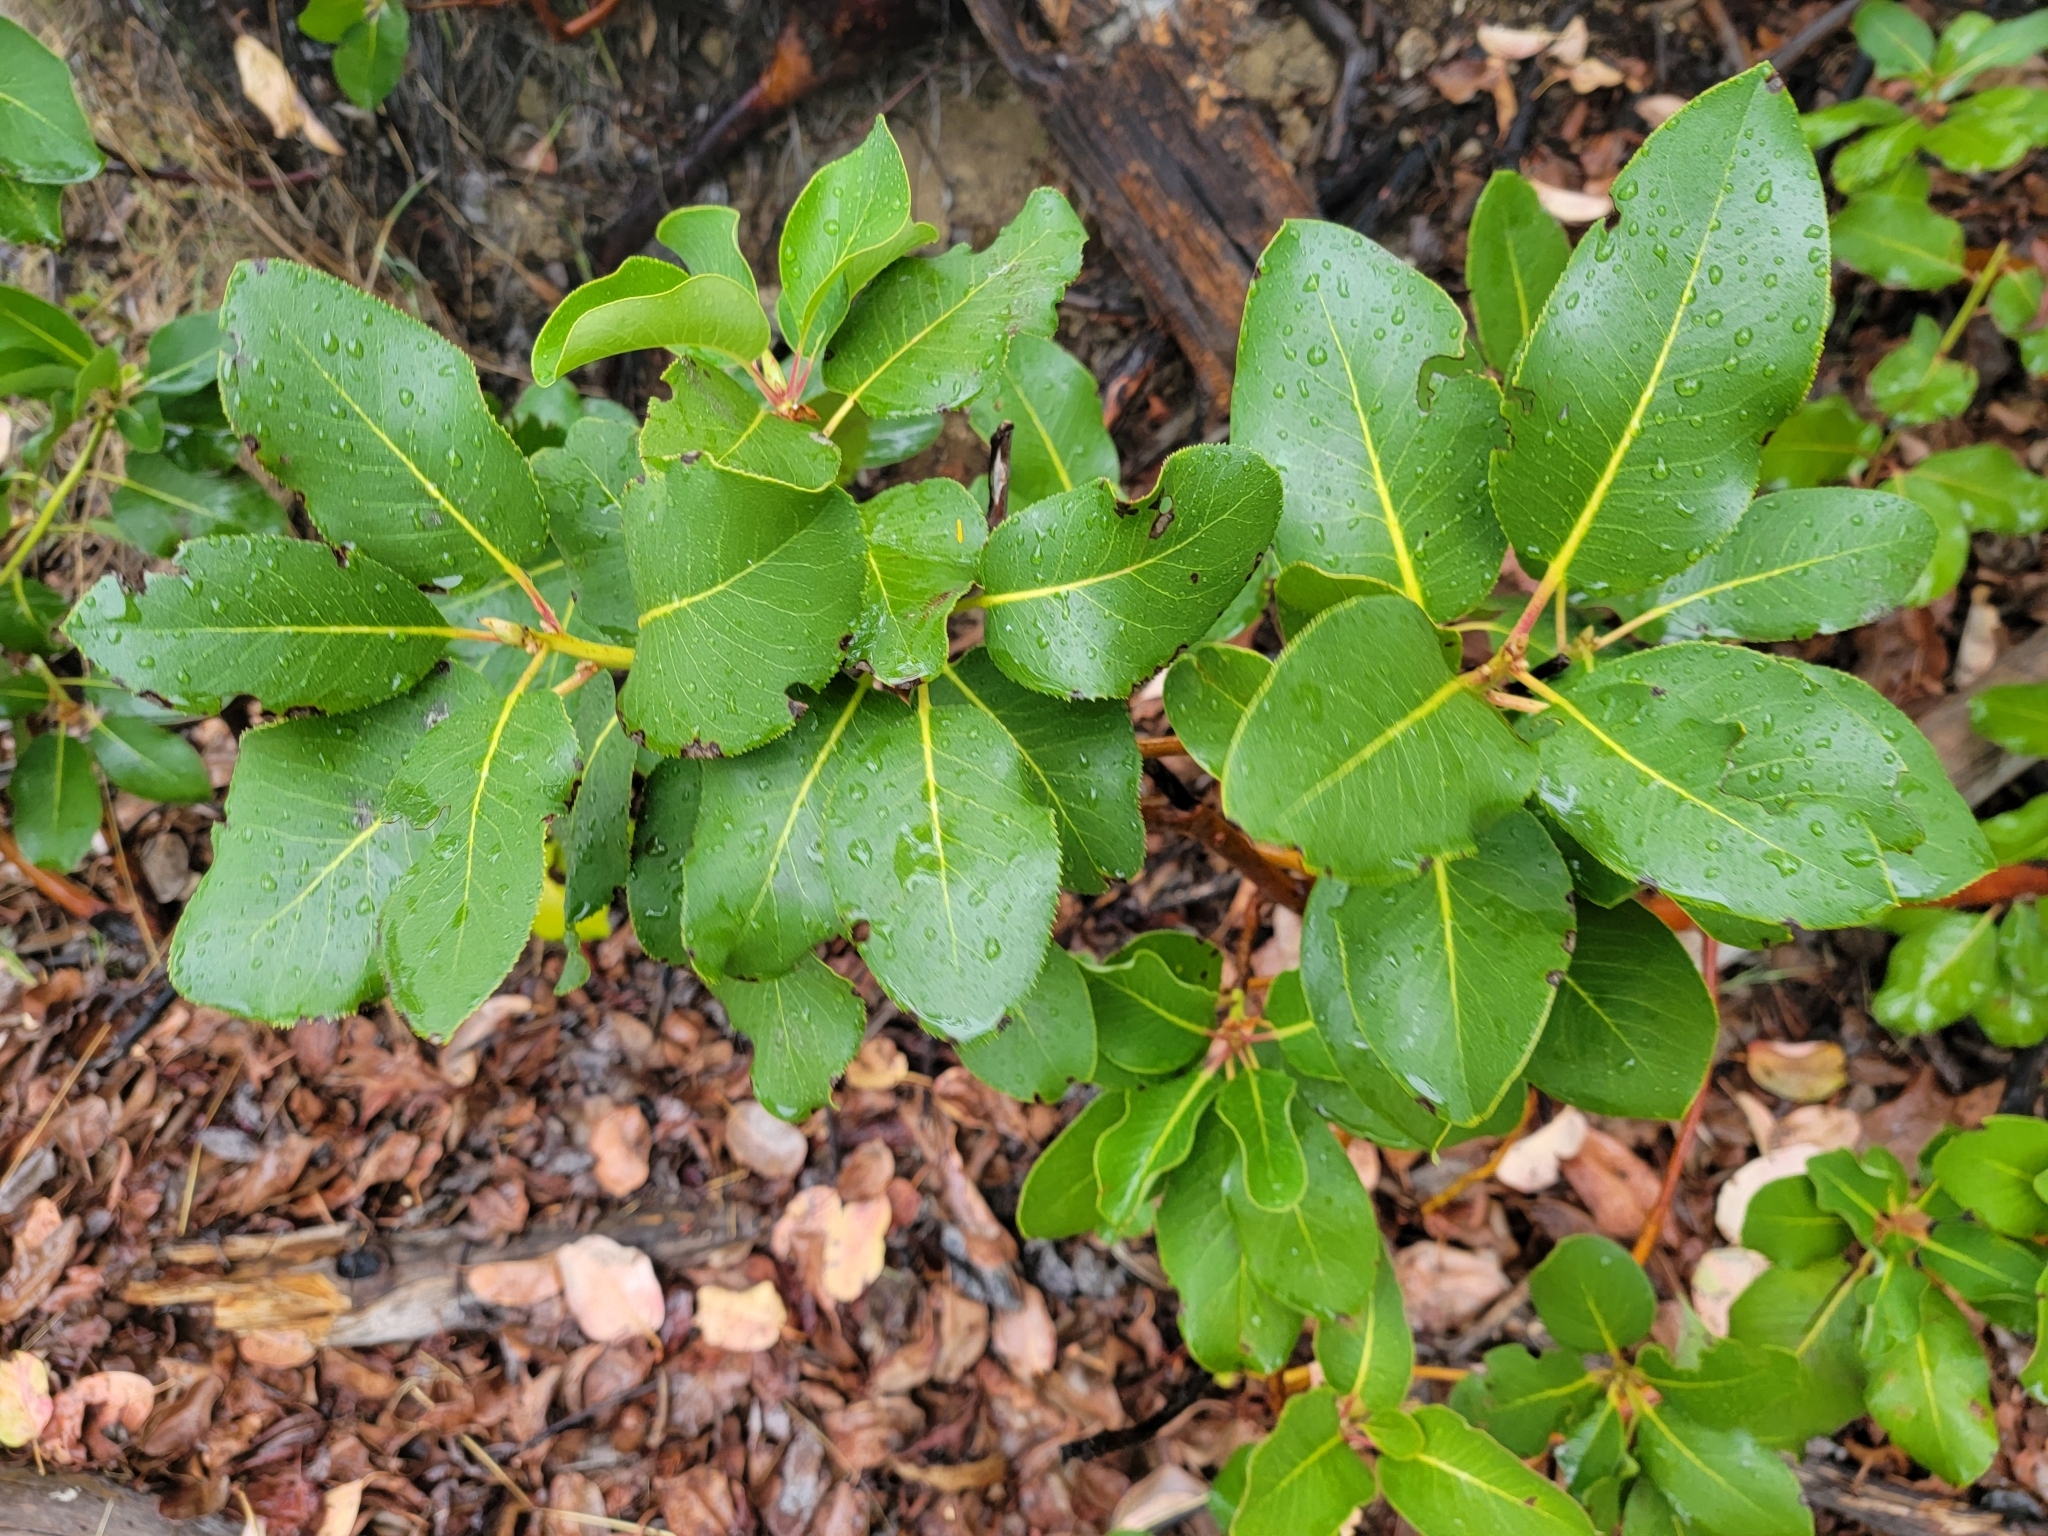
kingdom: Plantae
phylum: Tracheophyta
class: Magnoliopsida
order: Ericales
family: Ericaceae
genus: Arbutus
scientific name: Arbutus menziesii
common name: Pacific madrone
